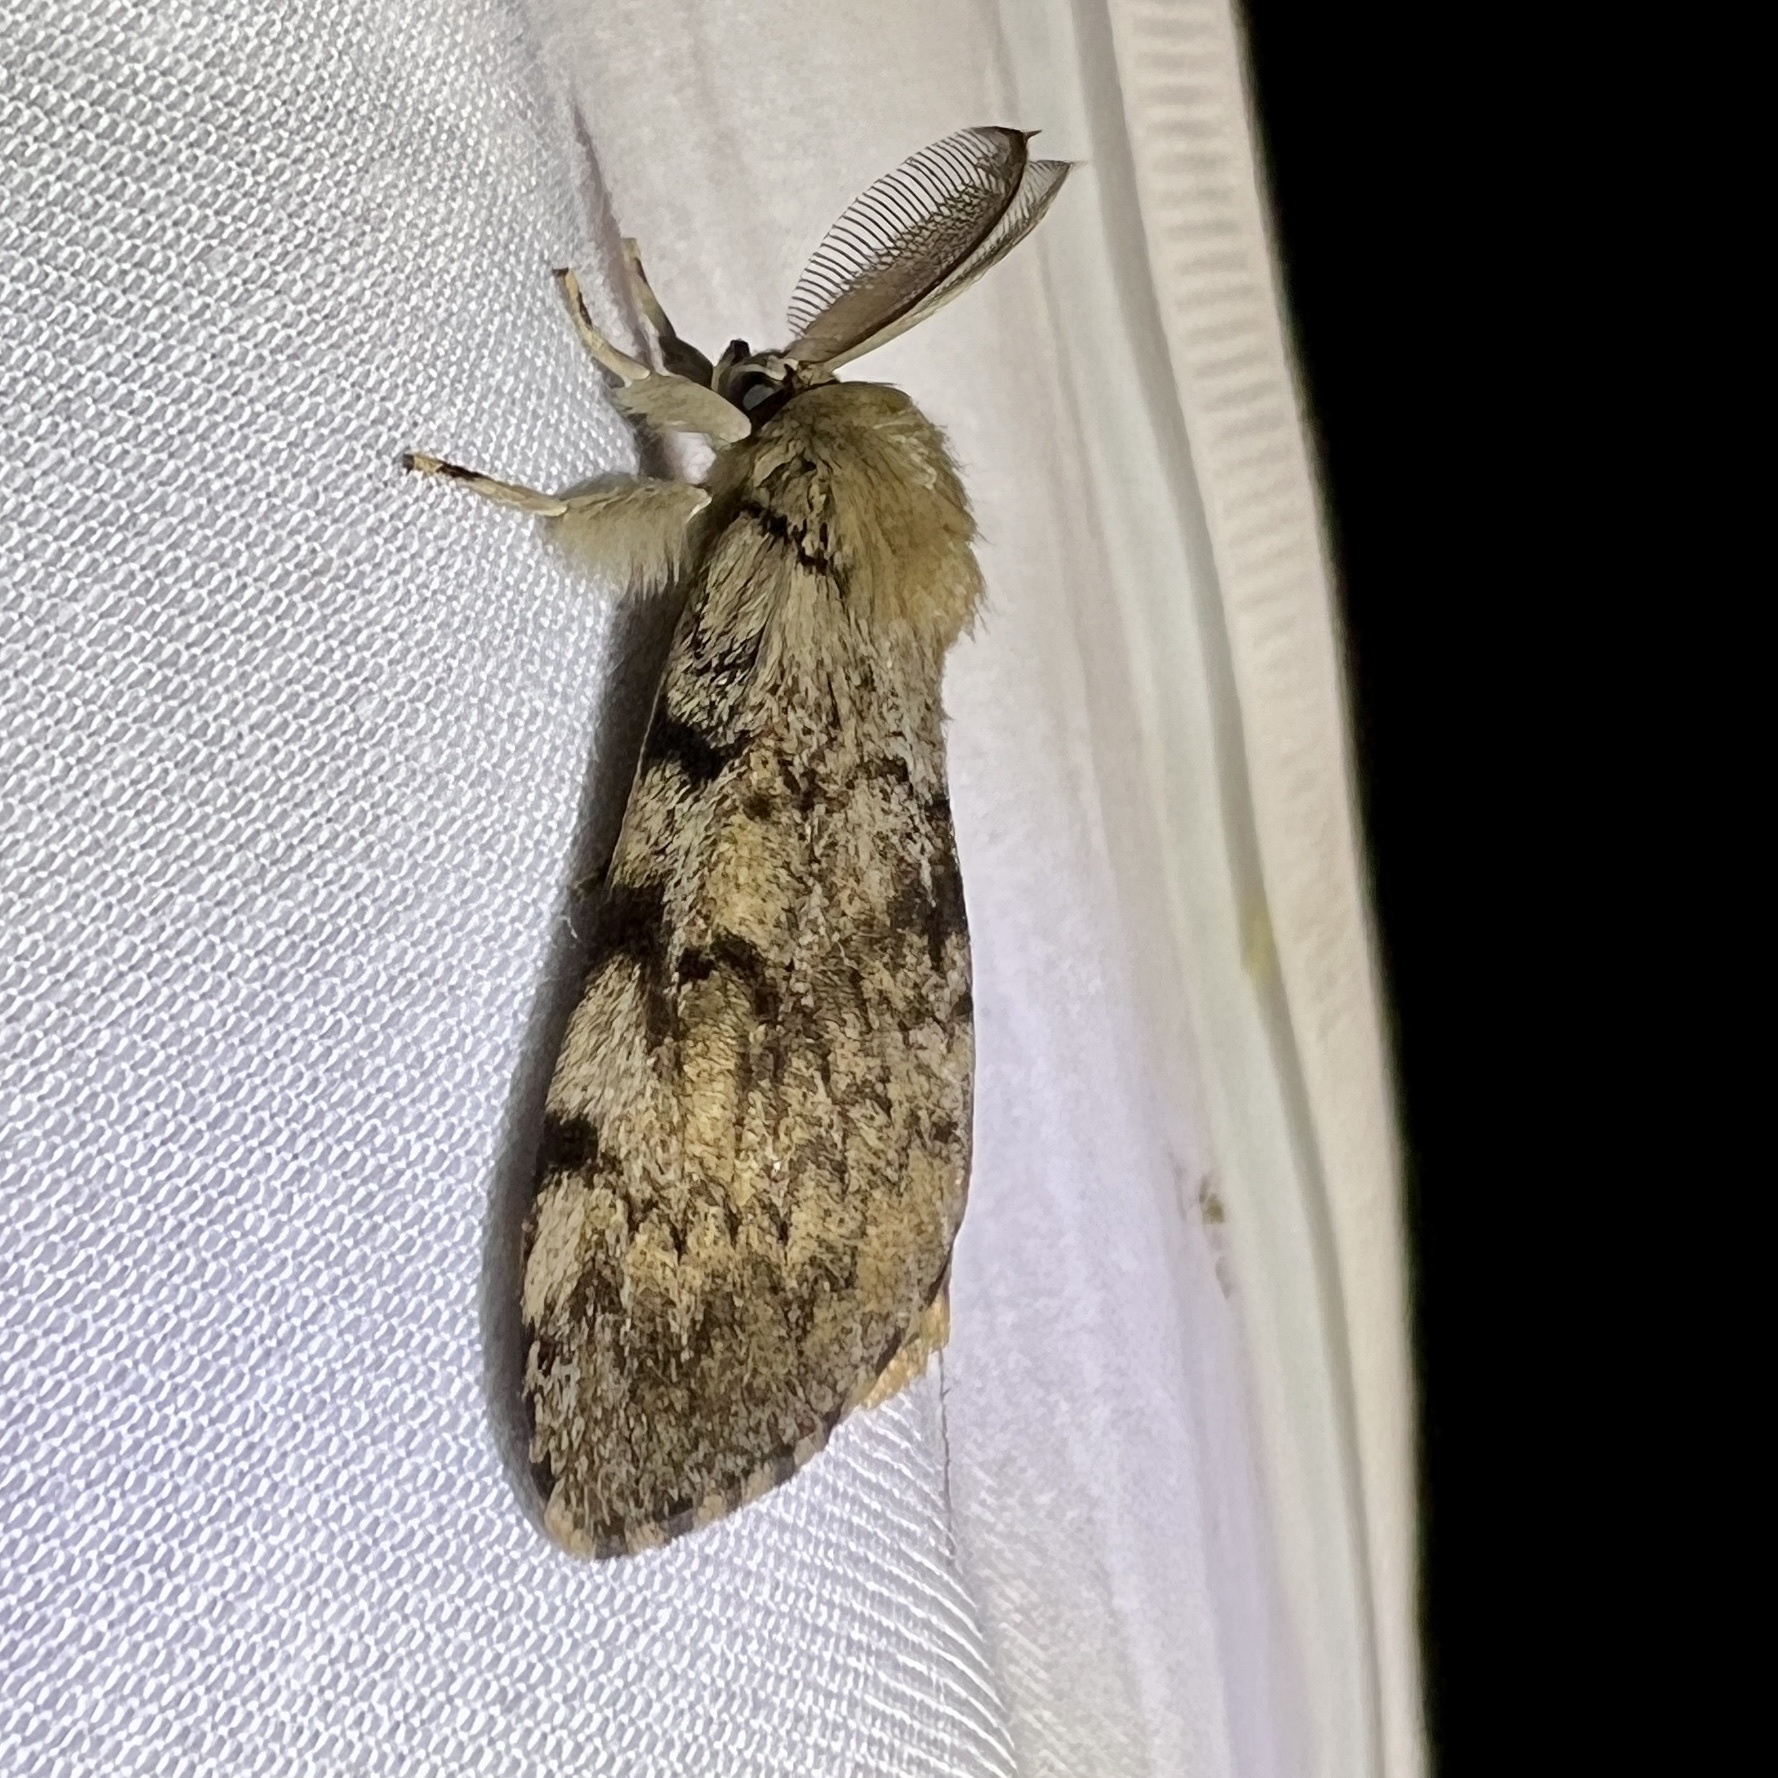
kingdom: Animalia
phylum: Arthropoda
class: Insecta
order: Lepidoptera
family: Erebidae
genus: Lymantria
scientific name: Lymantria dispar
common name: Gypsy moth
